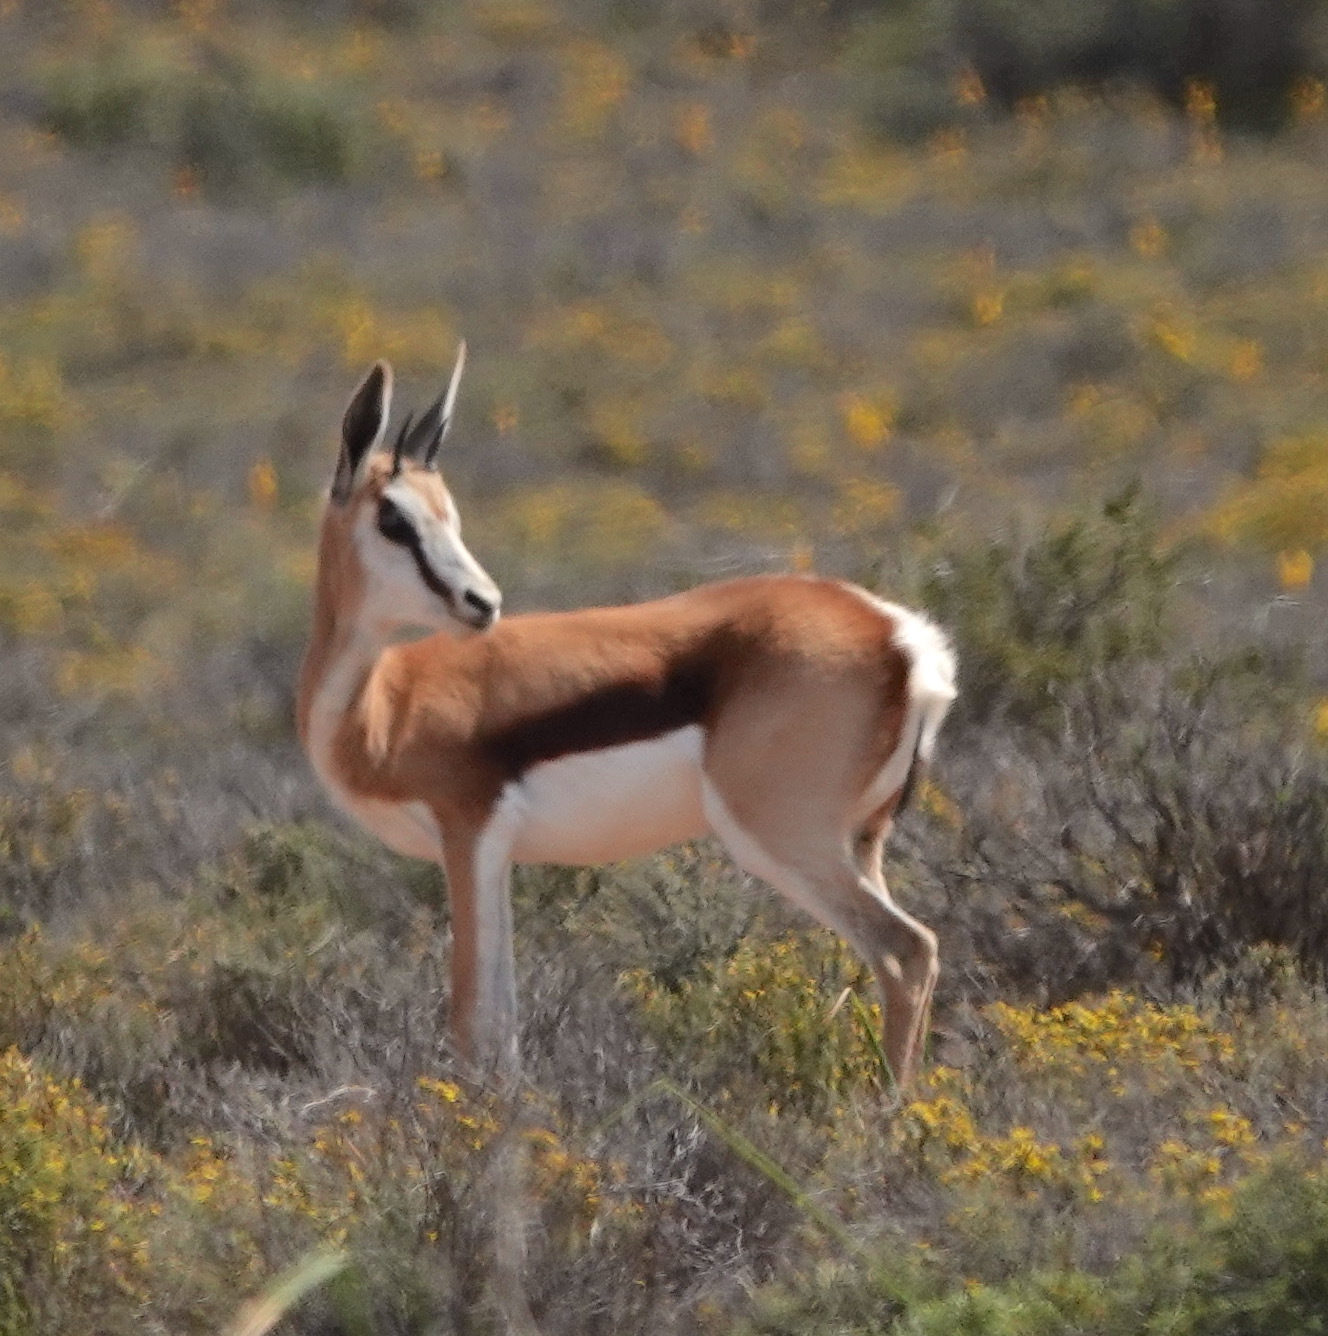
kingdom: Animalia
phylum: Chordata
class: Mammalia
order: Artiodactyla
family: Bovidae
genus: Antidorcas
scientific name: Antidorcas marsupialis
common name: Springbok
